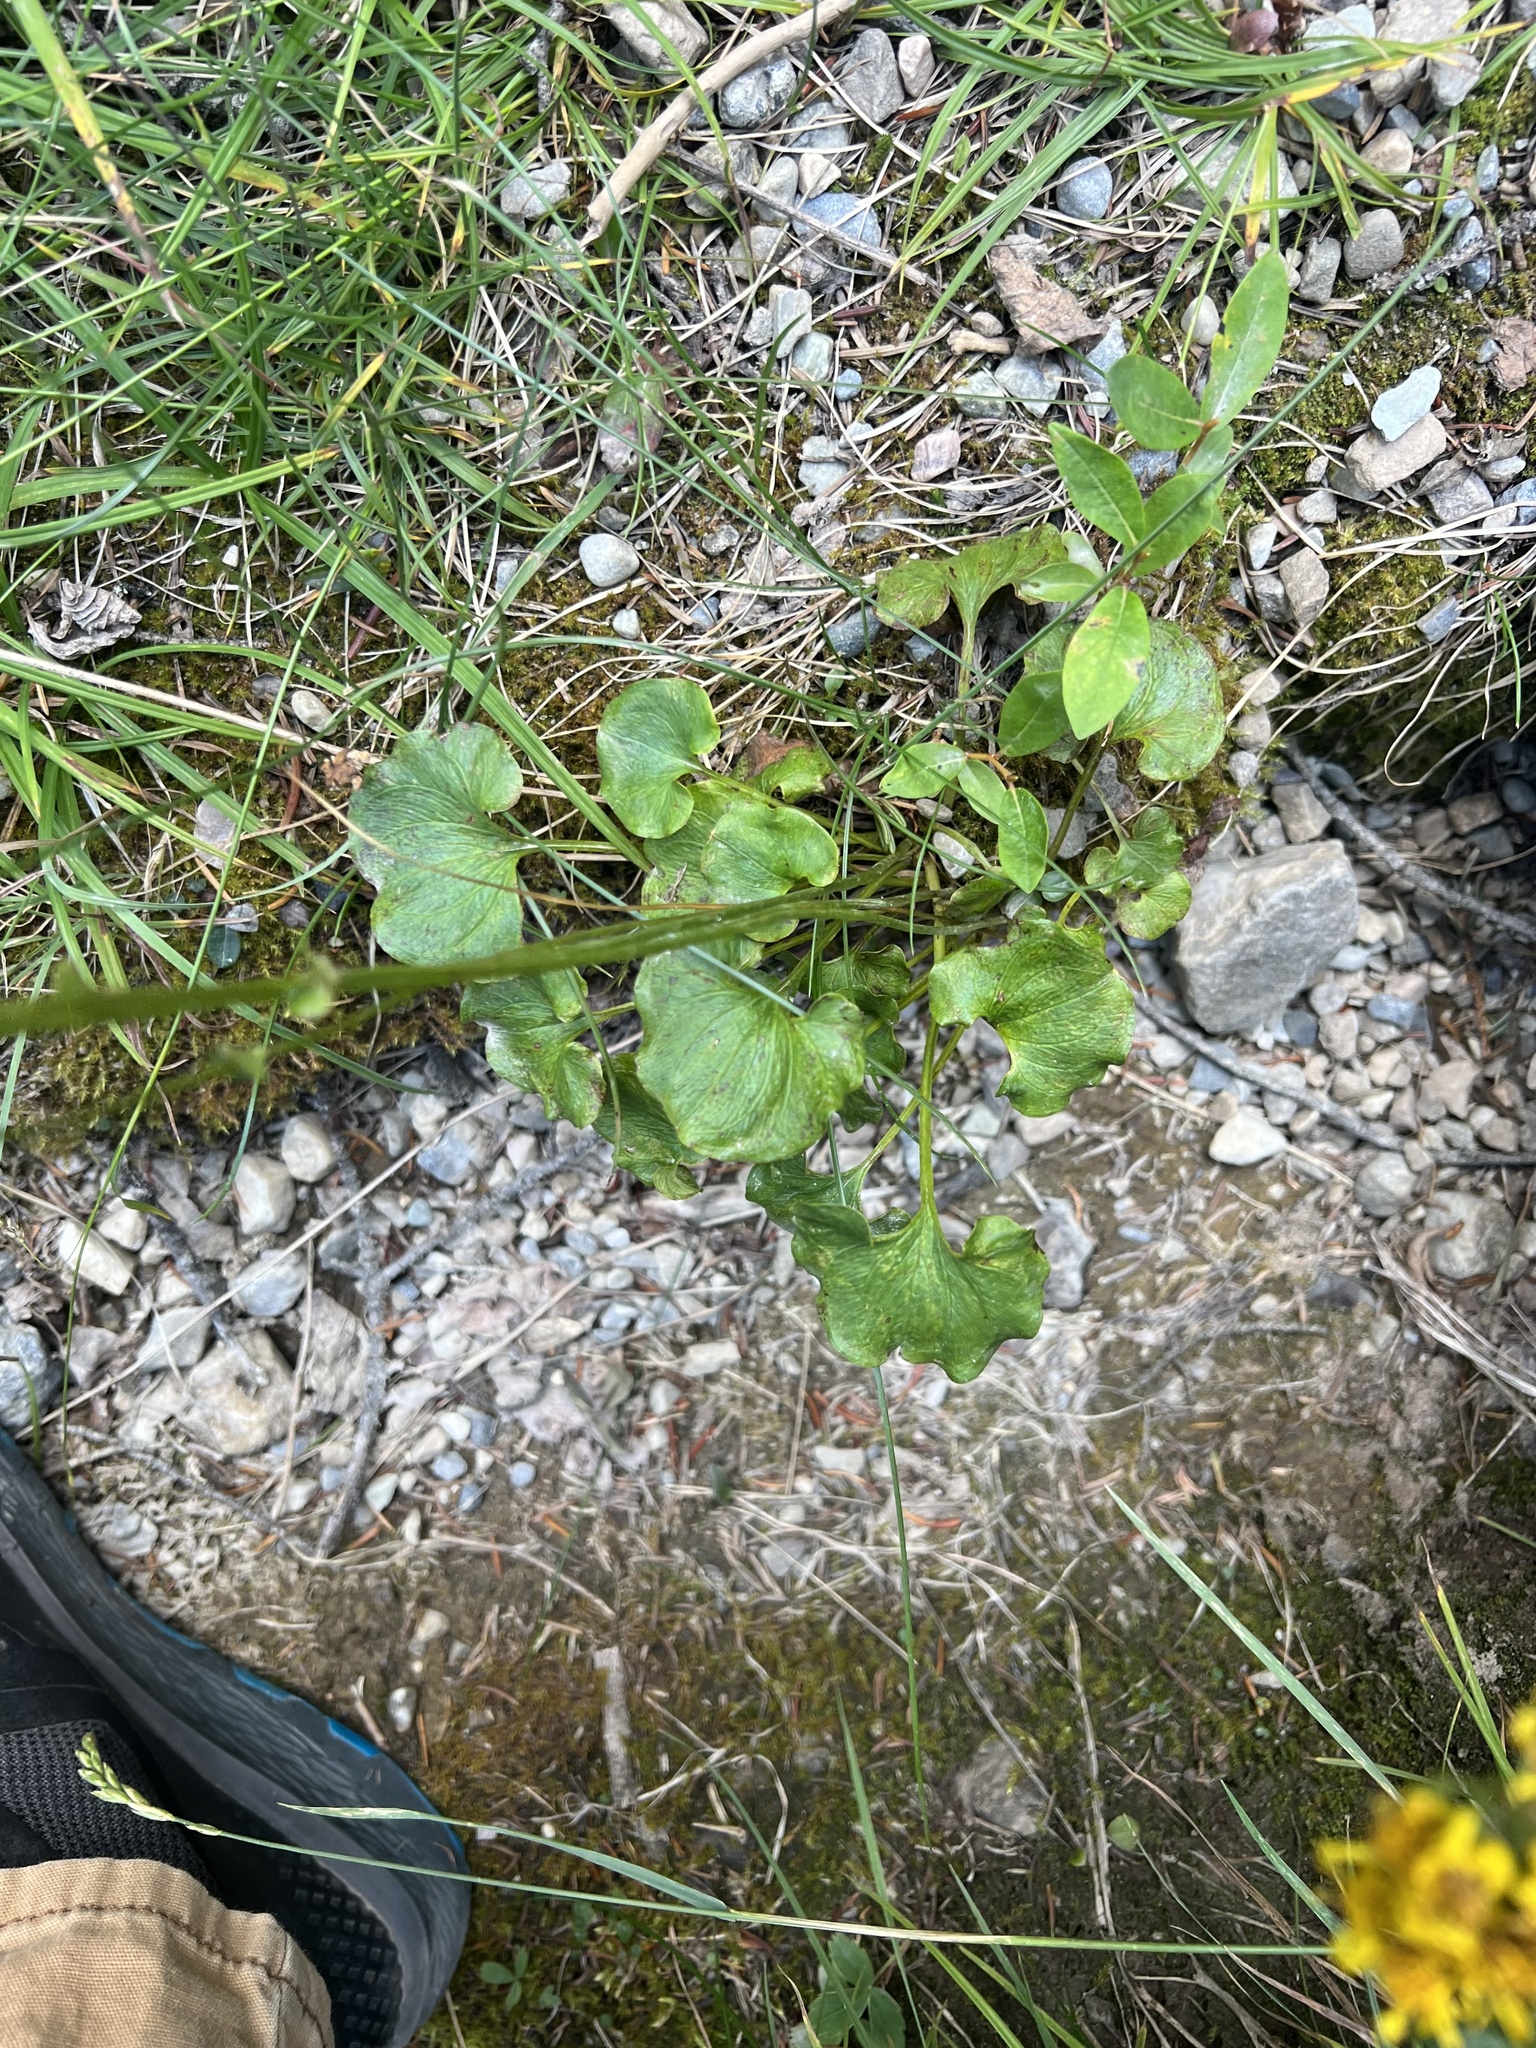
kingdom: Plantae
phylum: Tracheophyta
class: Magnoliopsida
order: Celastrales
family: Parnassiaceae
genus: Parnassia
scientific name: Parnassia fimbriata
